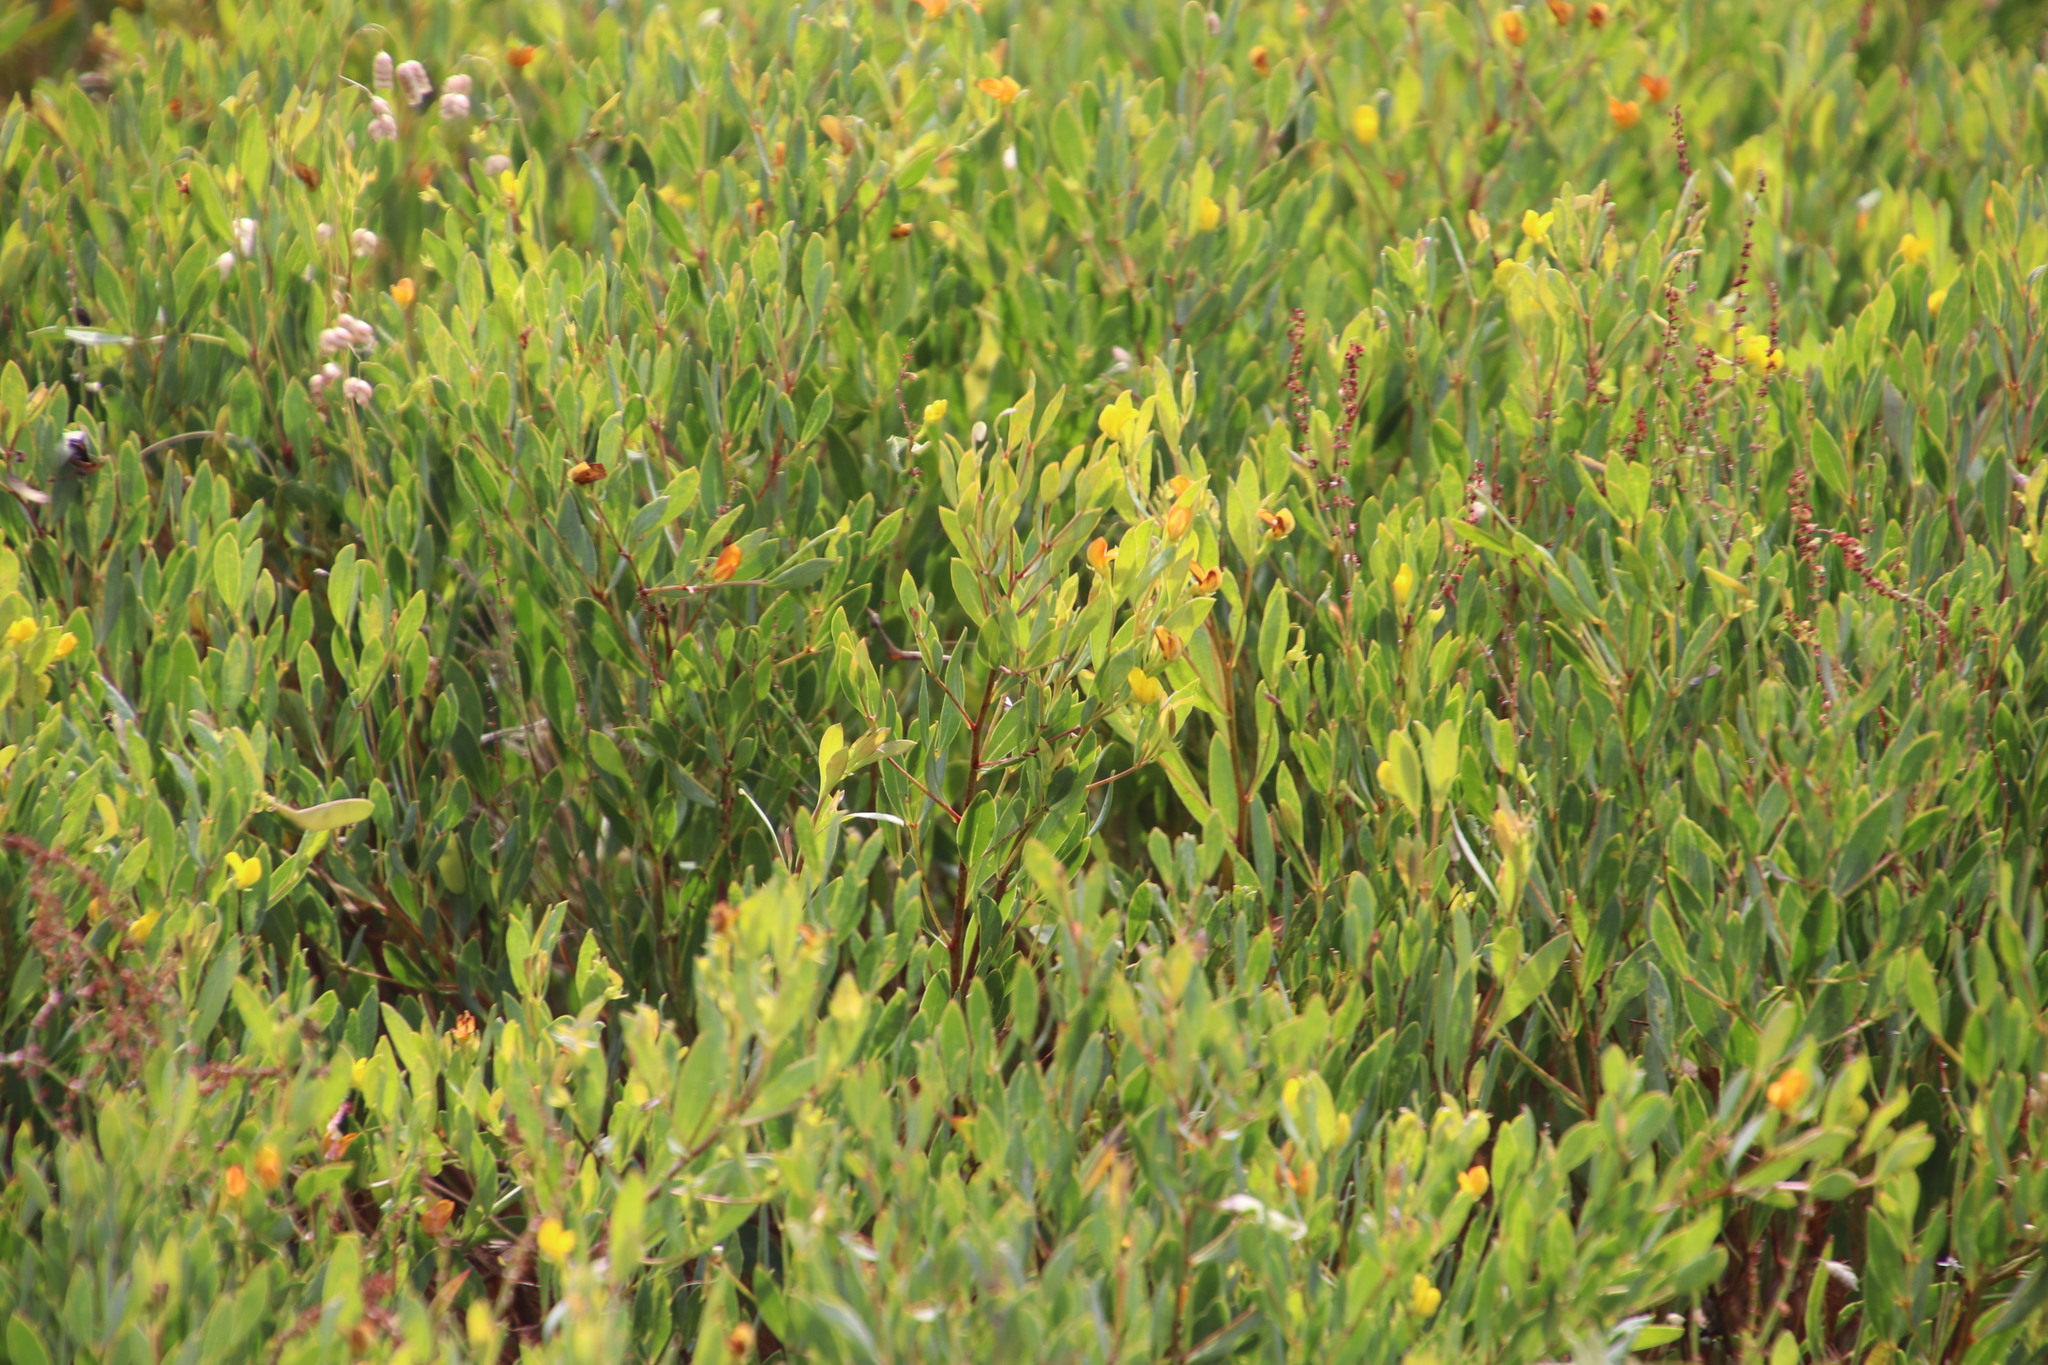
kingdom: Plantae
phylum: Tracheophyta
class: Magnoliopsida
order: Fabales
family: Fabaceae
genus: Rafnia
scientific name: Rafnia capensis
